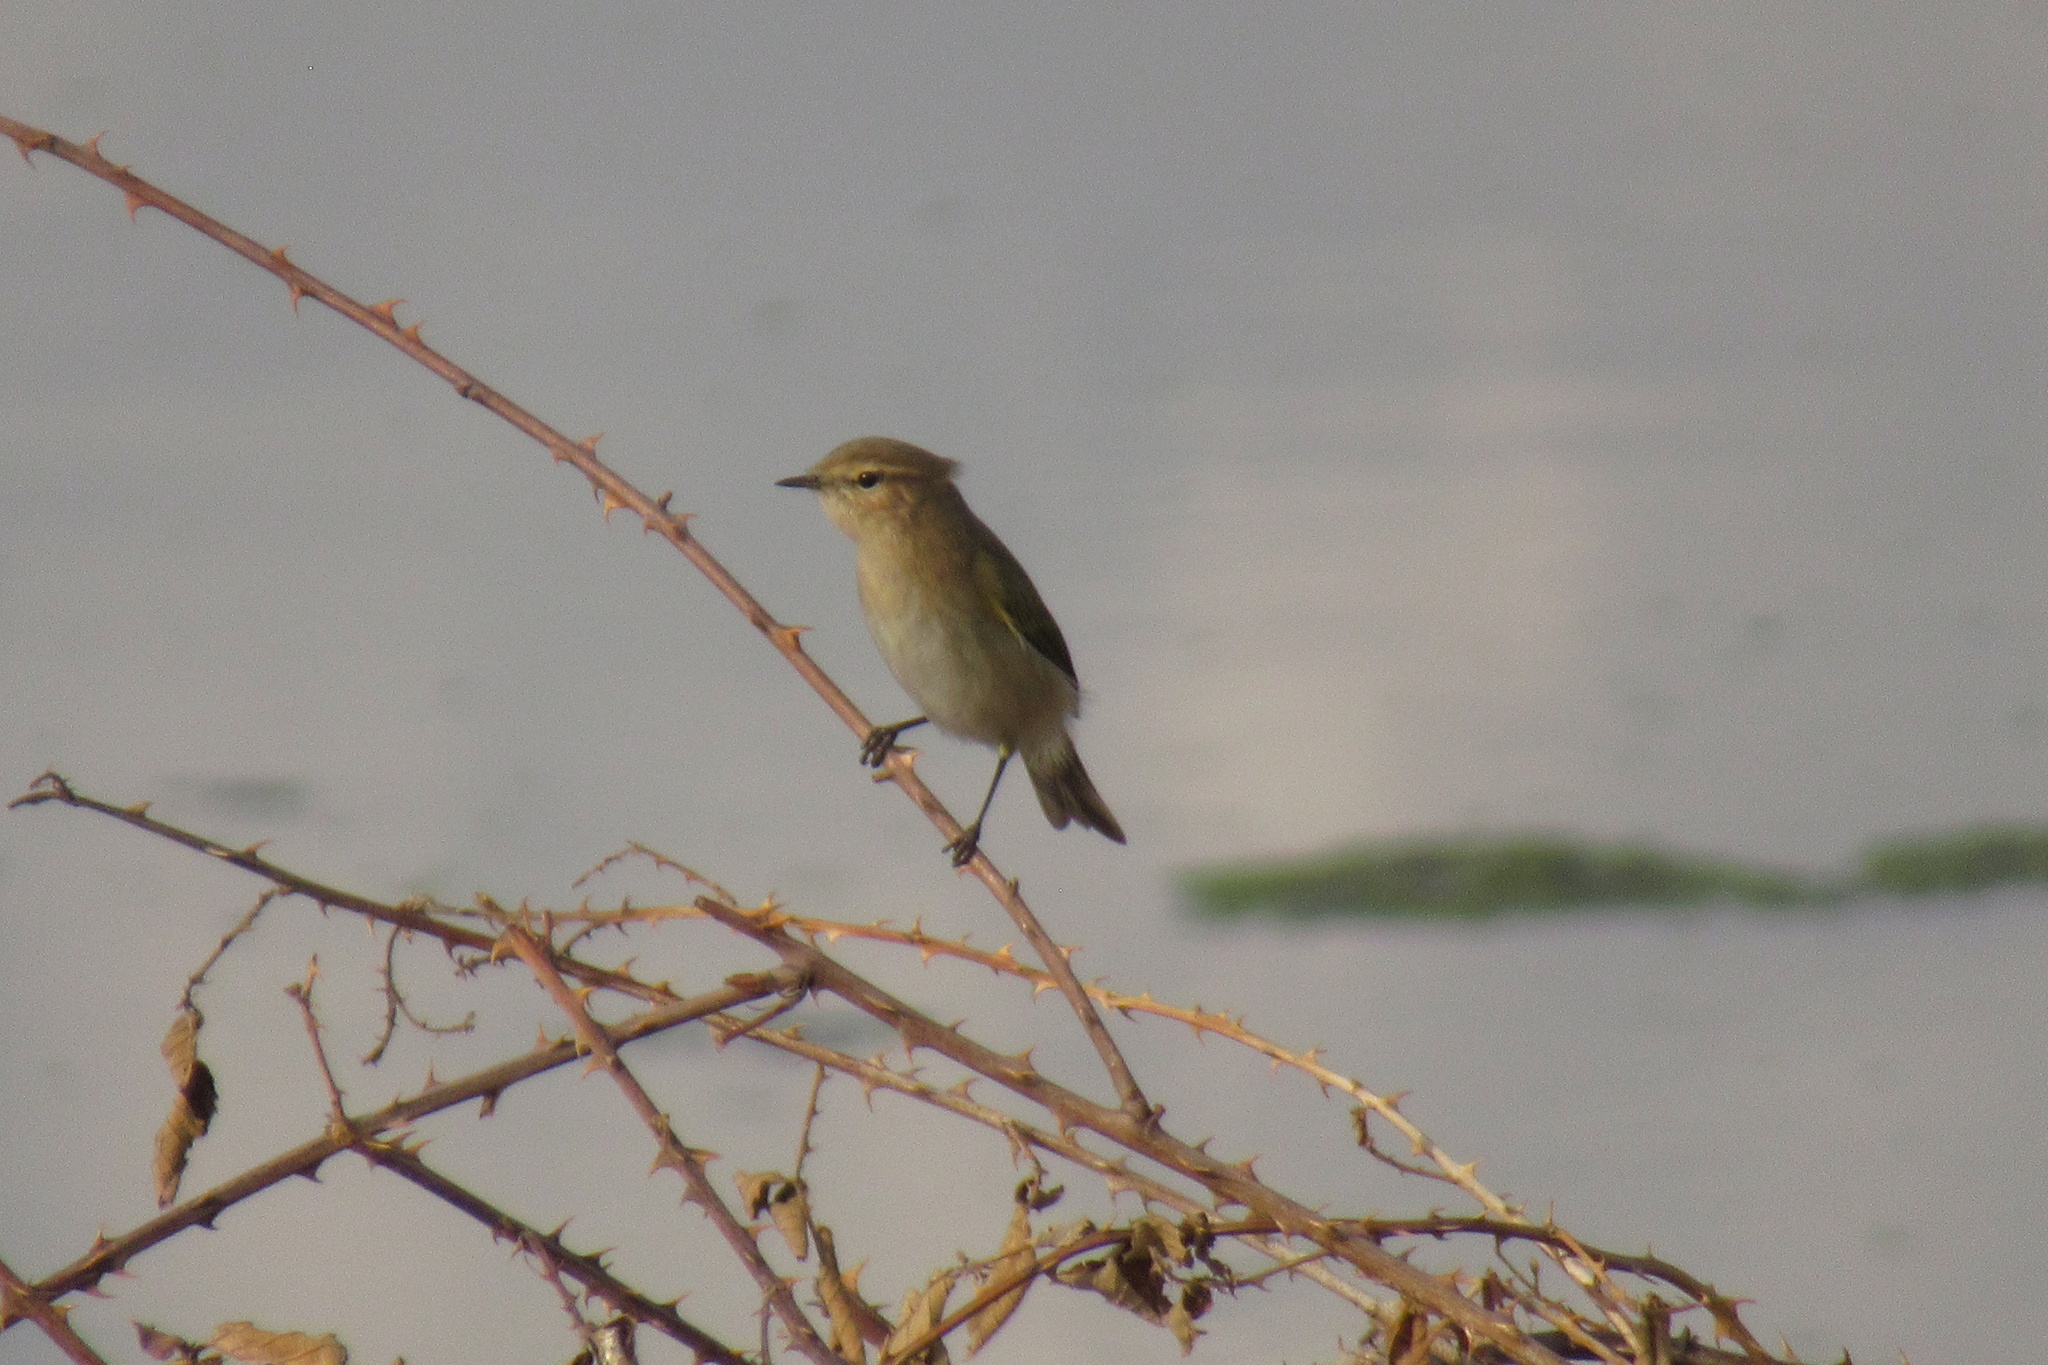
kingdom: Animalia
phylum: Chordata
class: Aves
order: Passeriformes
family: Phylloscopidae
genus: Phylloscopus
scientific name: Phylloscopus collybita
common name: Common chiffchaff
